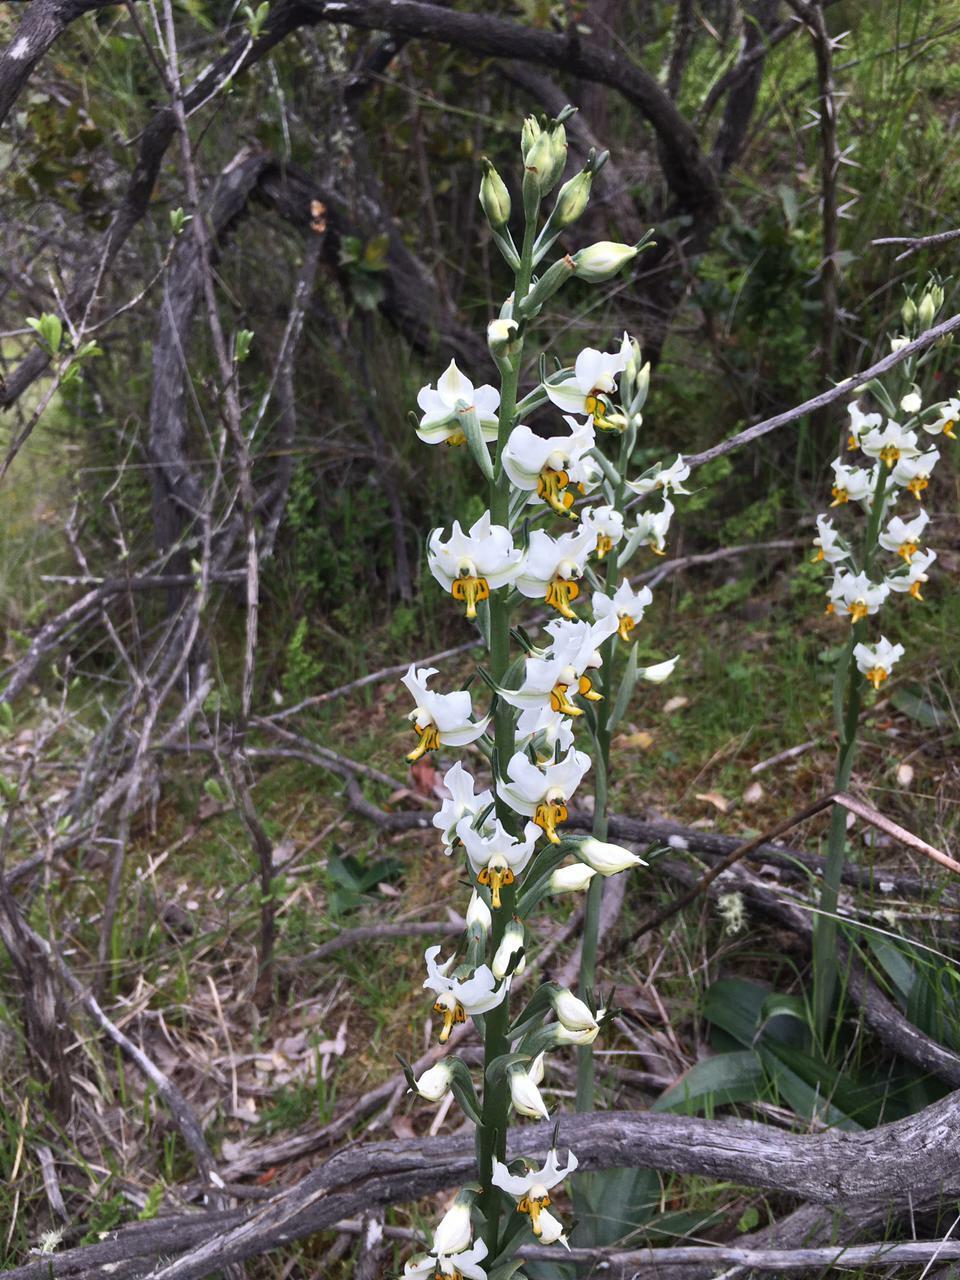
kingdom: Plantae
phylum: Tracheophyta
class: Liliopsida
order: Asparagales
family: Orchidaceae
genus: Gavilea
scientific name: Gavilea longibracteata
